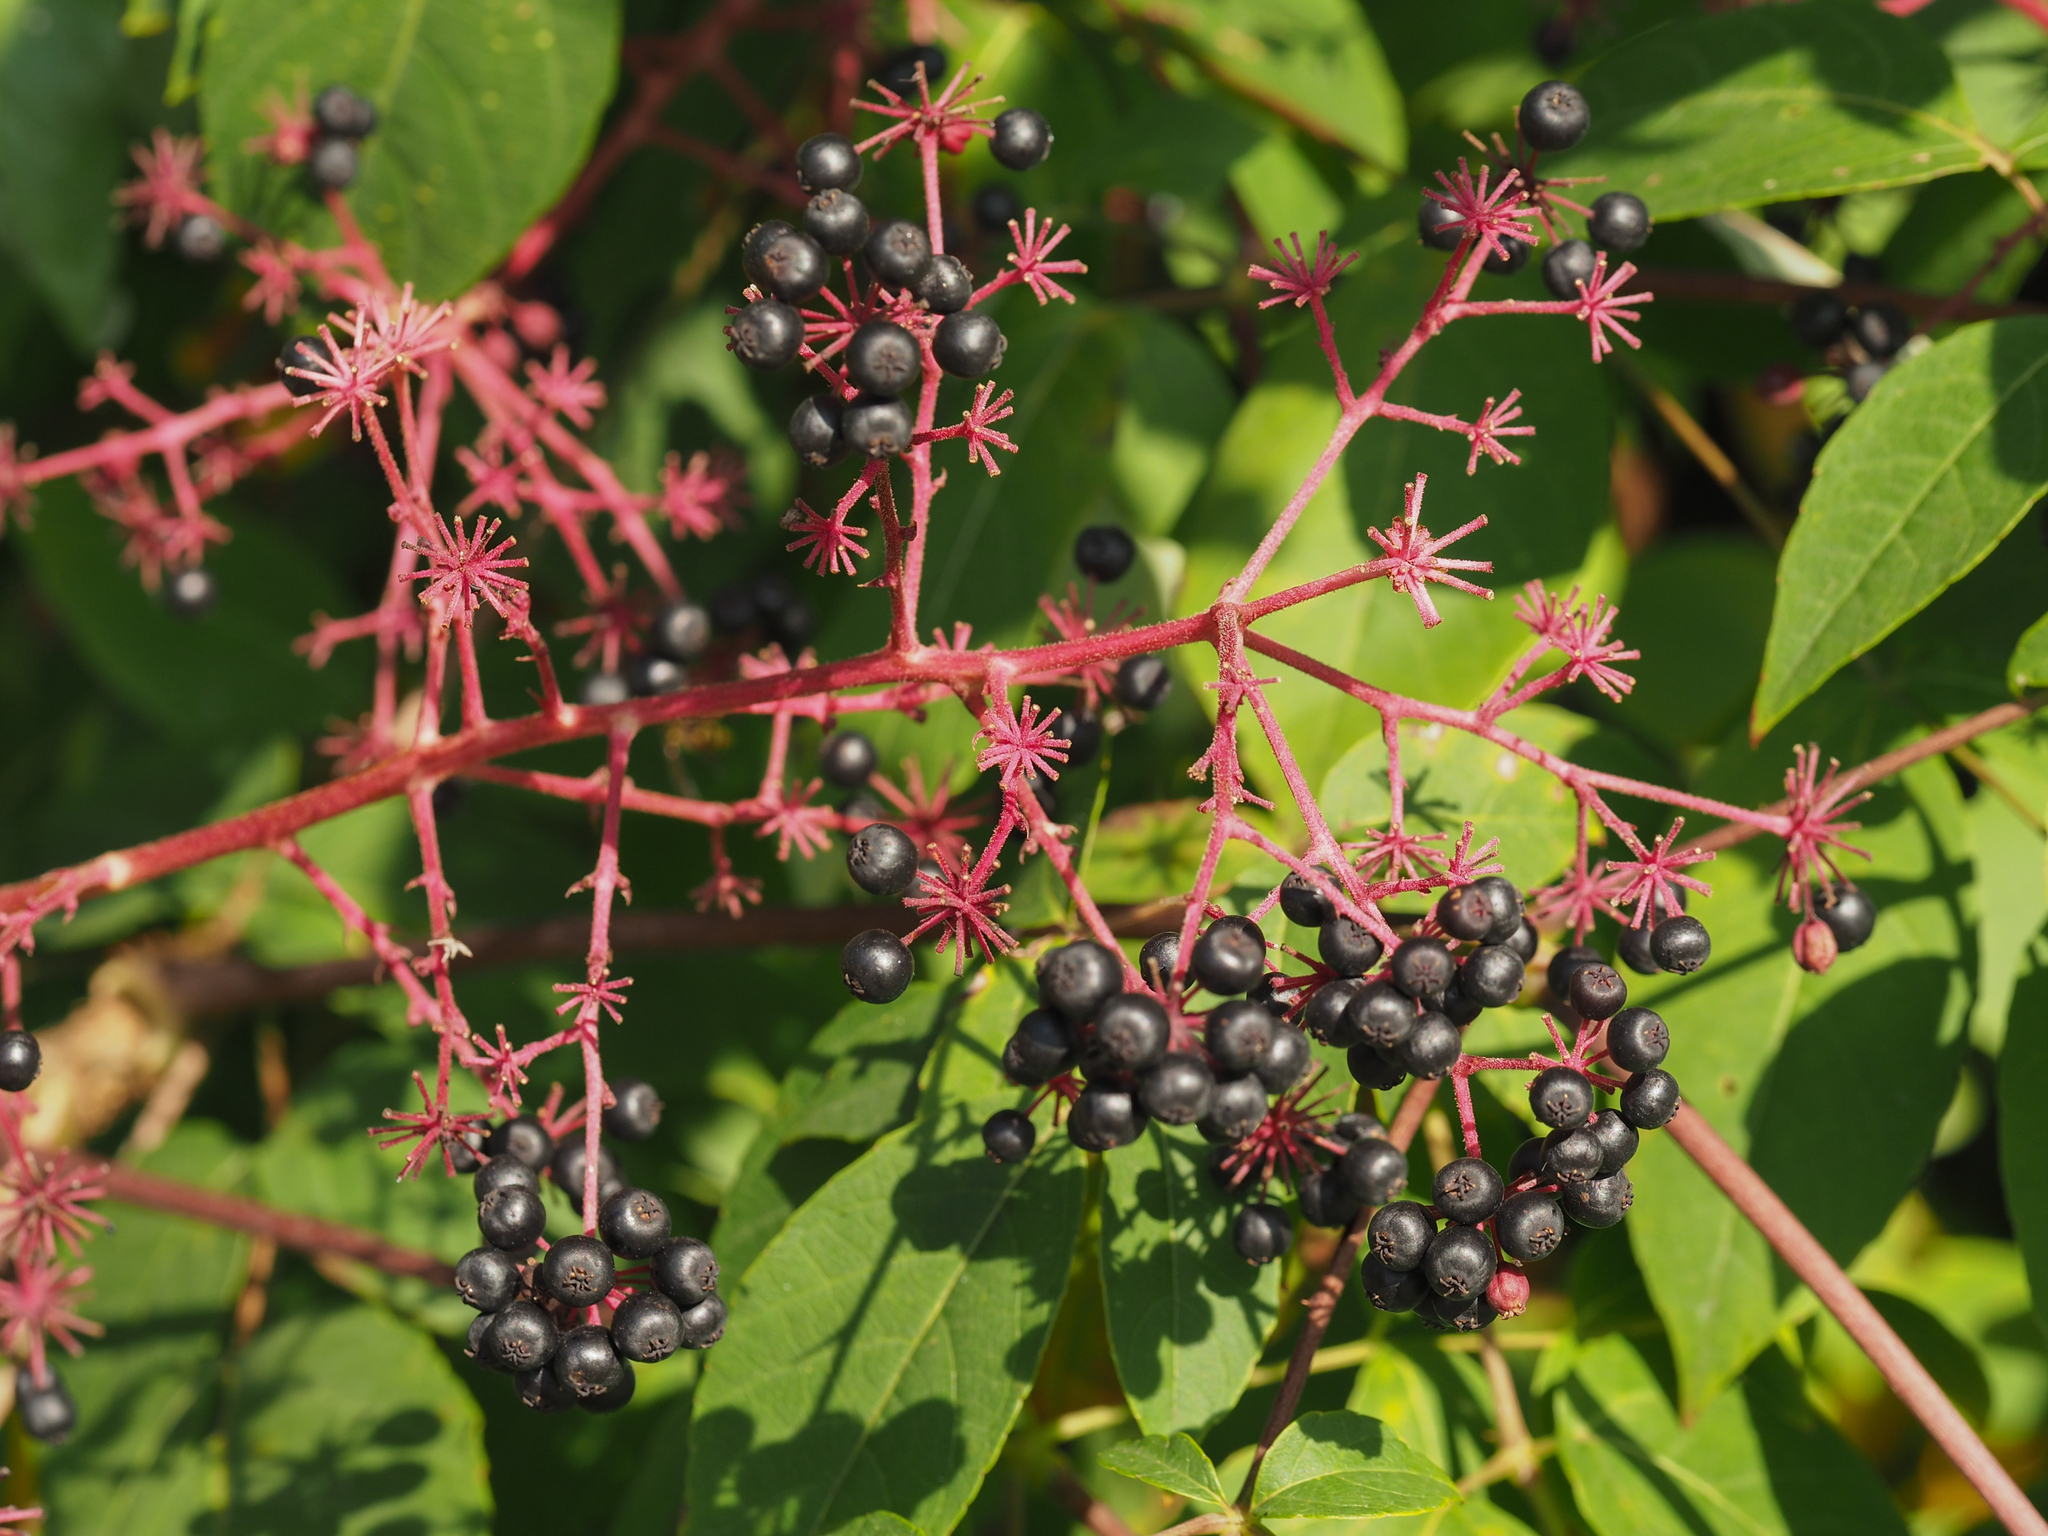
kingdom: Plantae
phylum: Tracheophyta
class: Magnoliopsida
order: Apiales
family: Araliaceae
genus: Aralia
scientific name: Aralia spinosa
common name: Hercules'-club
